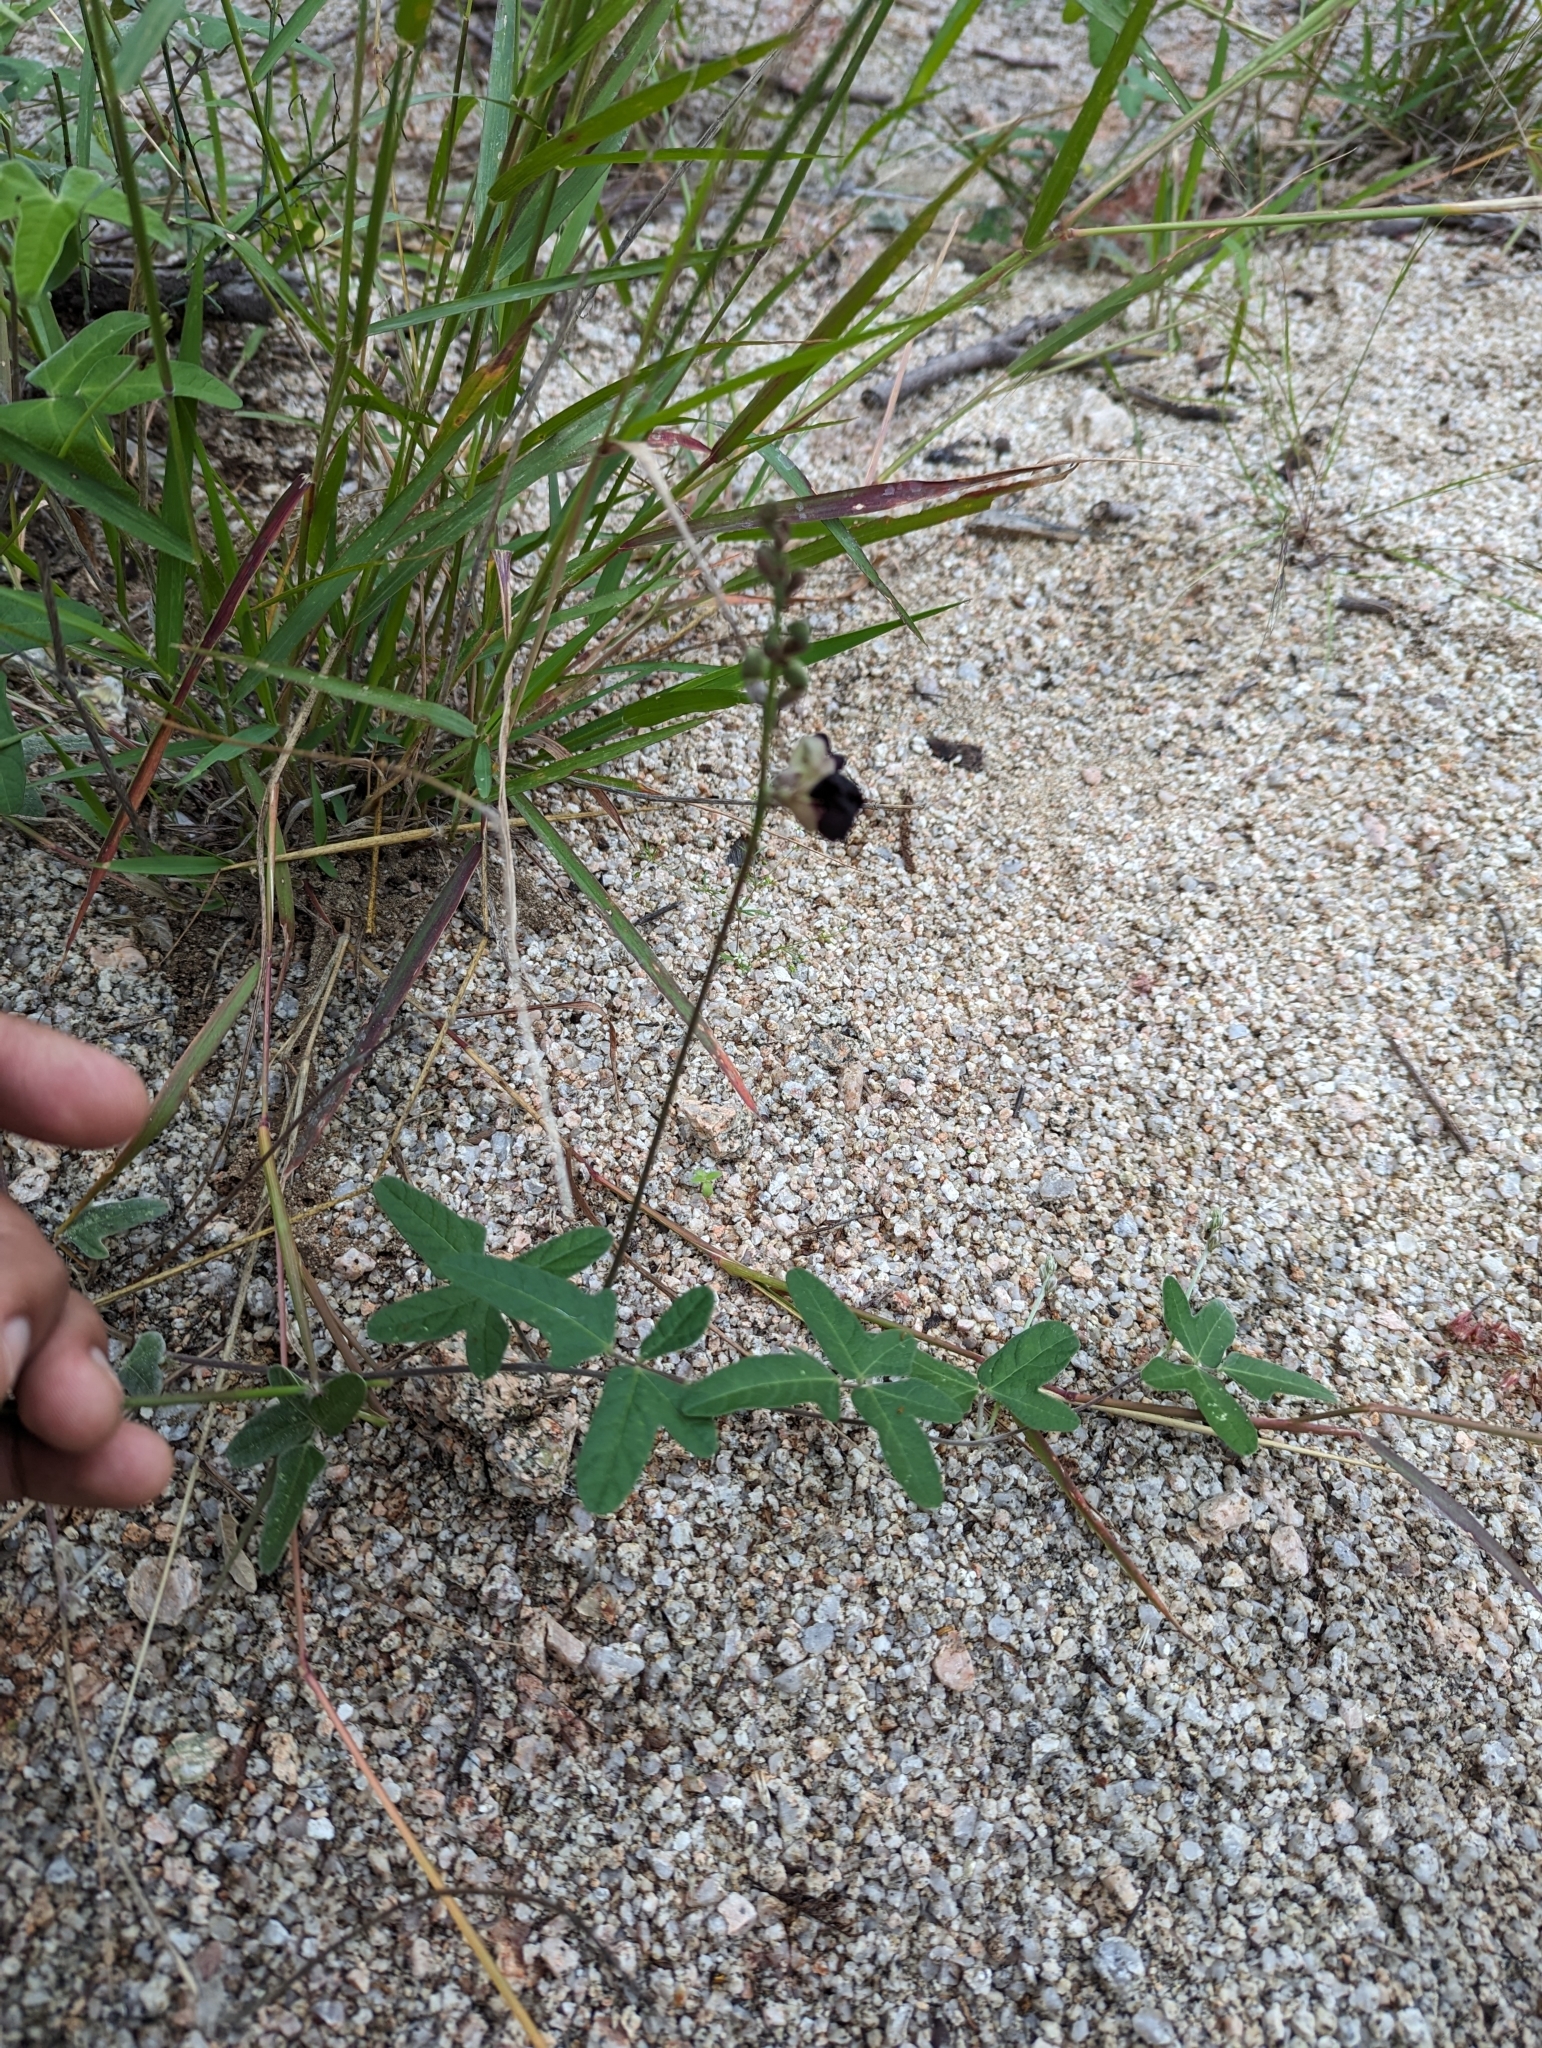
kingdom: Plantae
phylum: Tracheophyta
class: Magnoliopsida
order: Fabales
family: Fabaceae
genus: Macroptilium
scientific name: Macroptilium atropurpureum
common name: Purple bushbean
